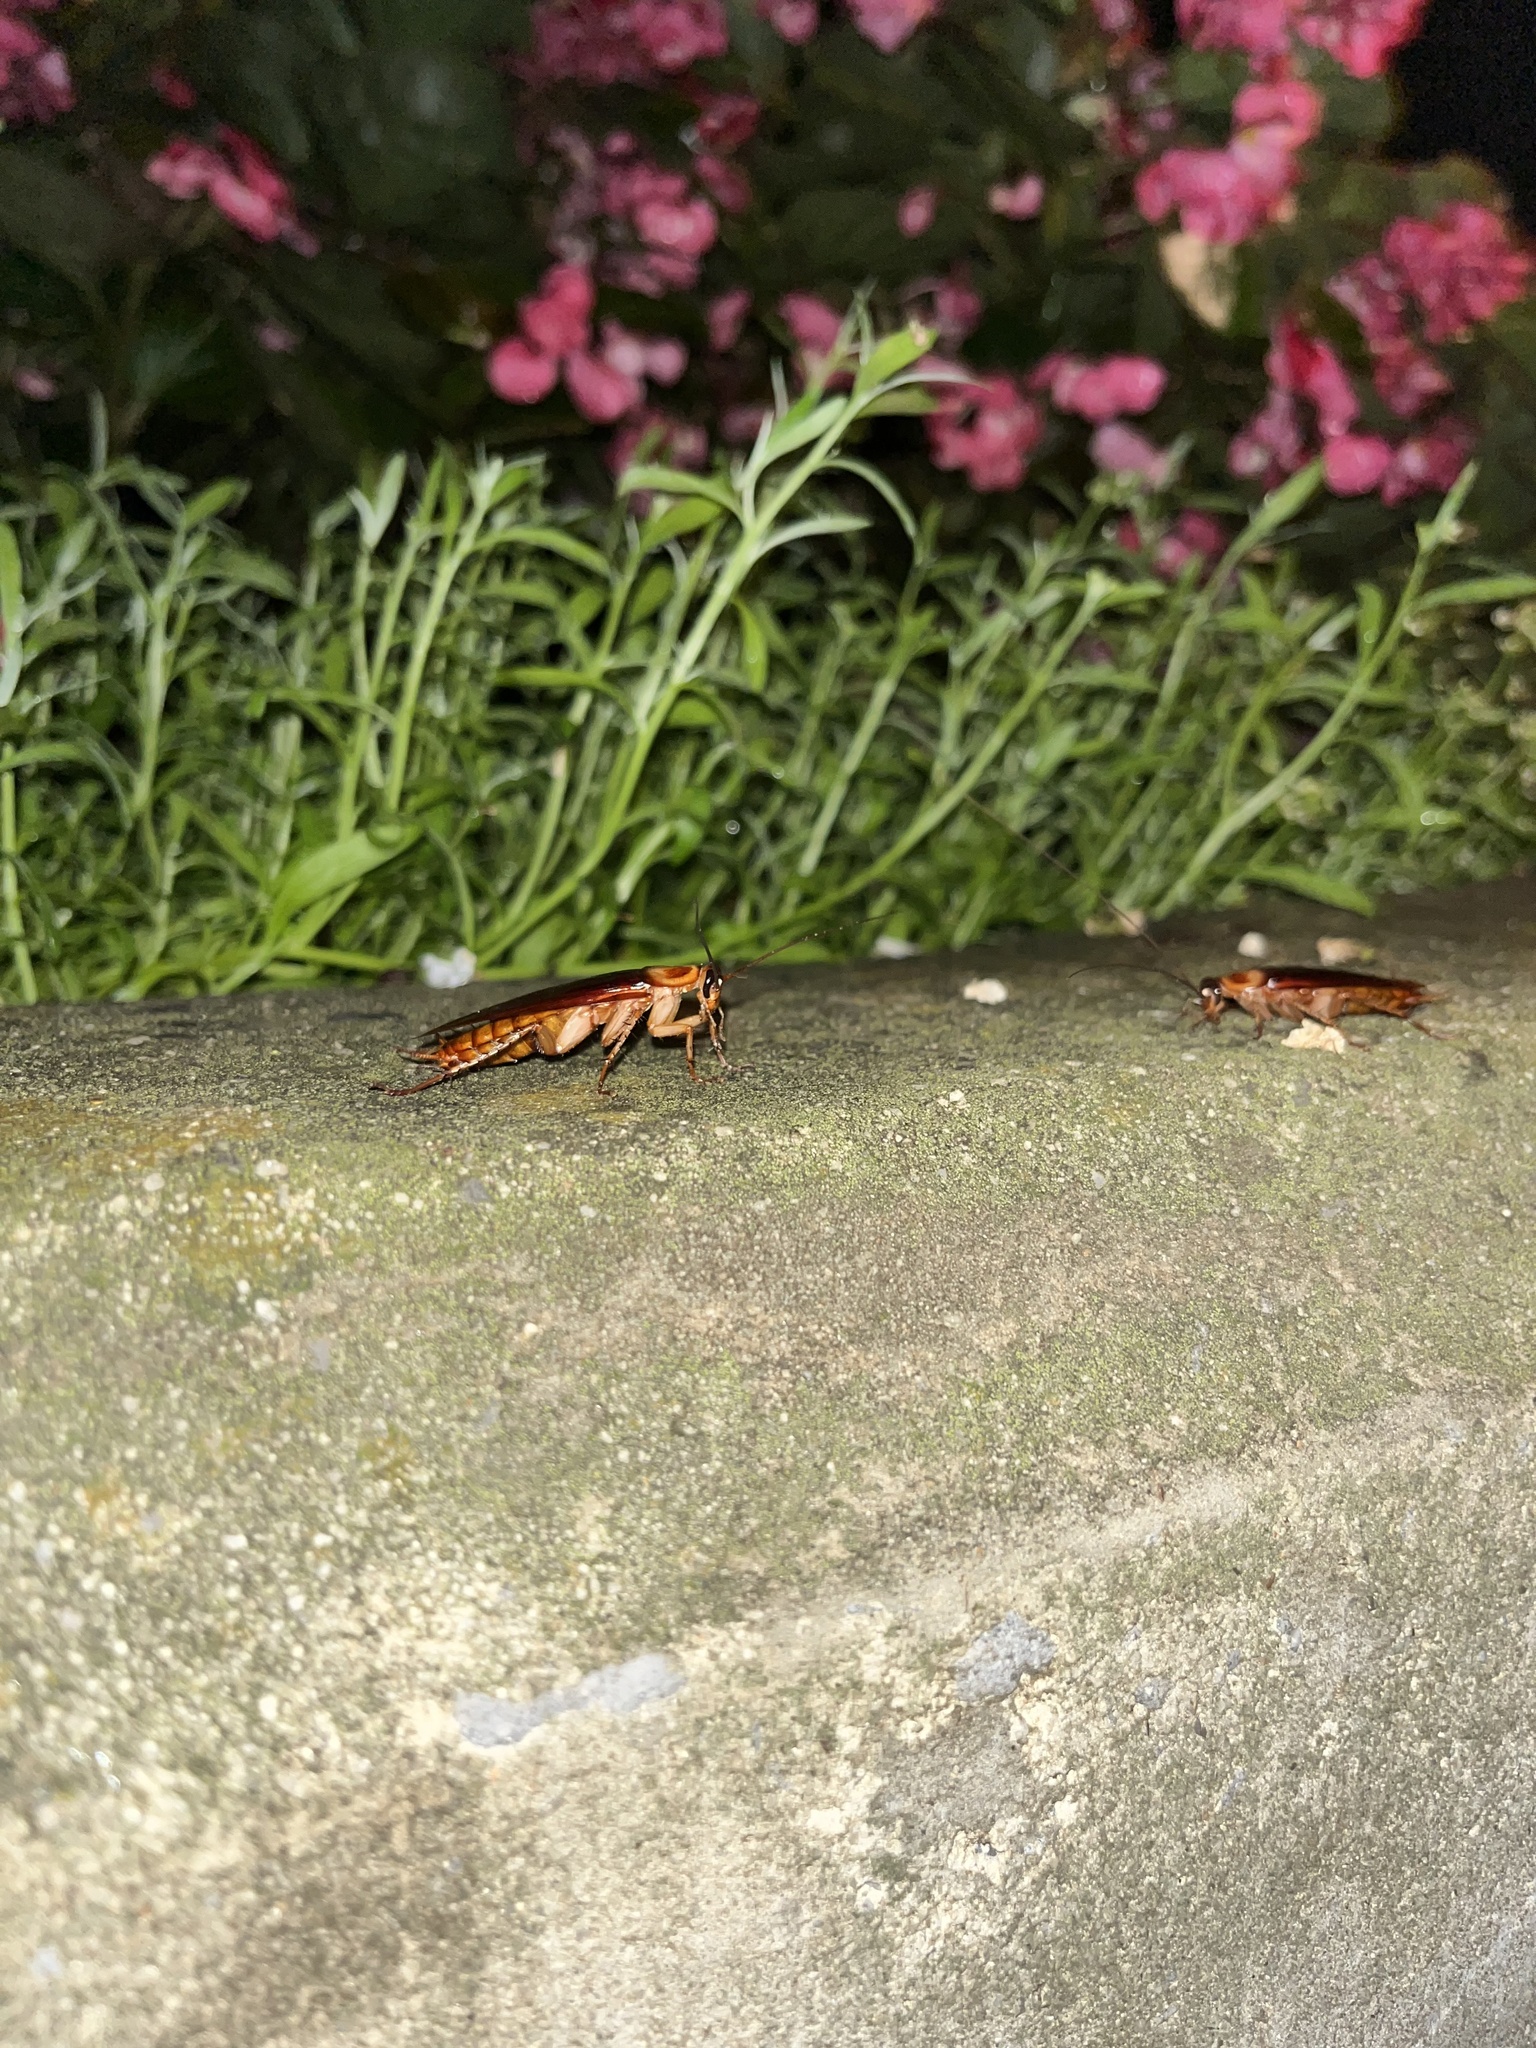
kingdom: Animalia
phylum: Arthropoda
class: Insecta
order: Blattodea
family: Blattidae
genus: Periplaneta
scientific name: Periplaneta americana
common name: American cockroach
